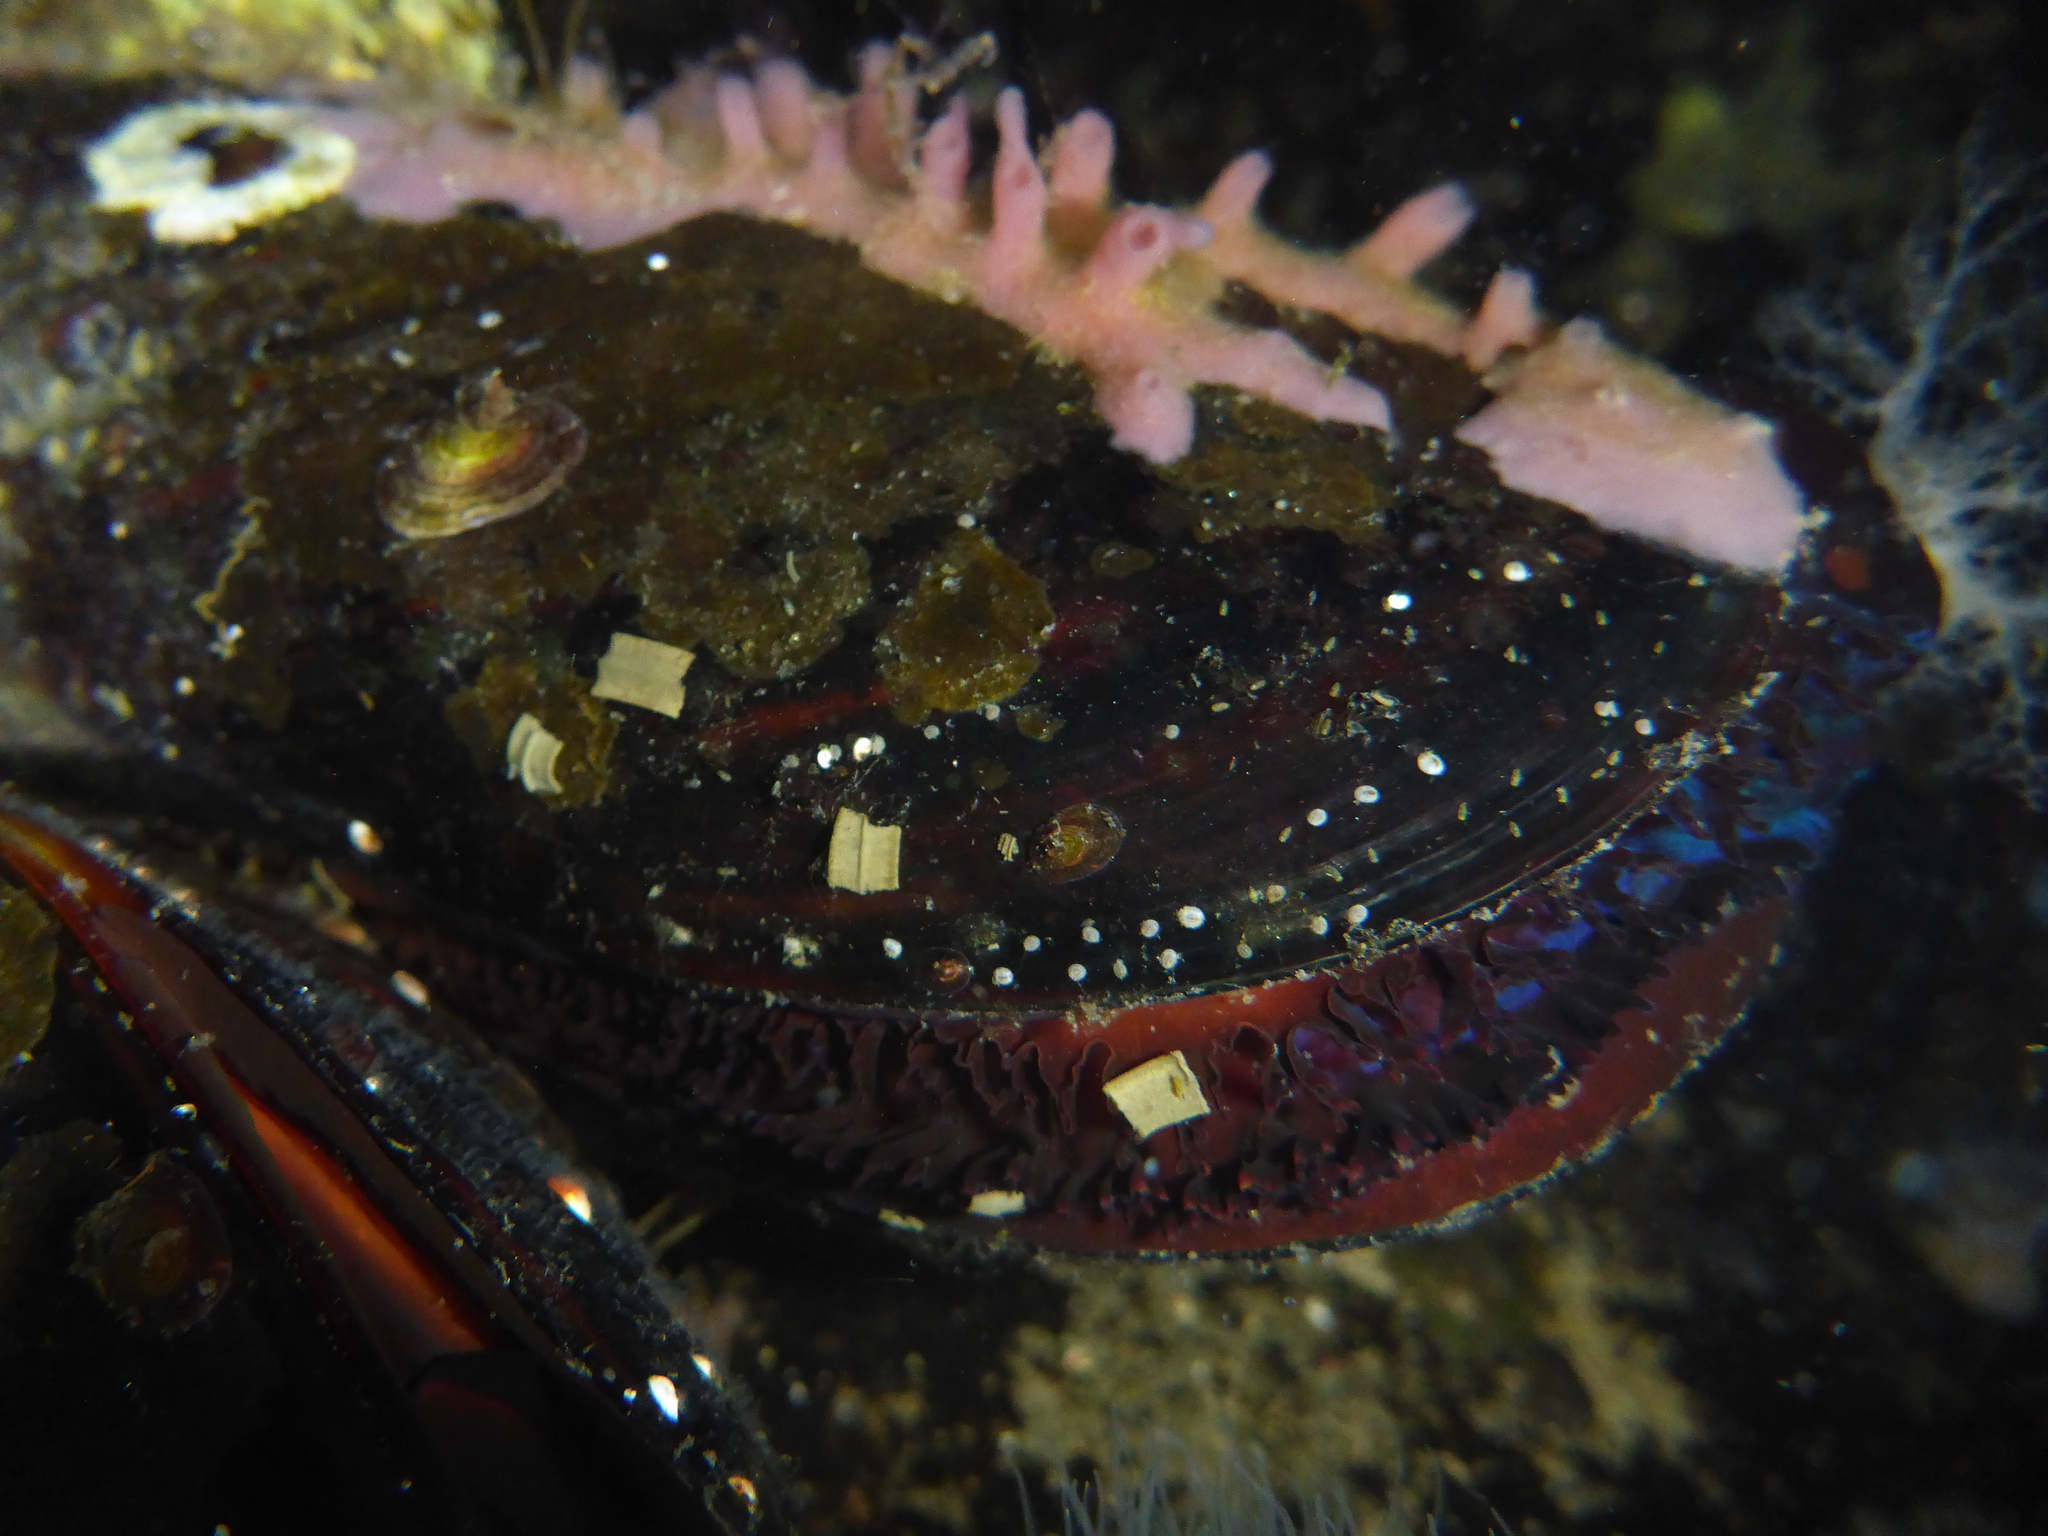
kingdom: Animalia
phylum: Mollusca
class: Bivalvia
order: Mytilida
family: Mytilidae
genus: Mytilus
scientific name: Mytilus
